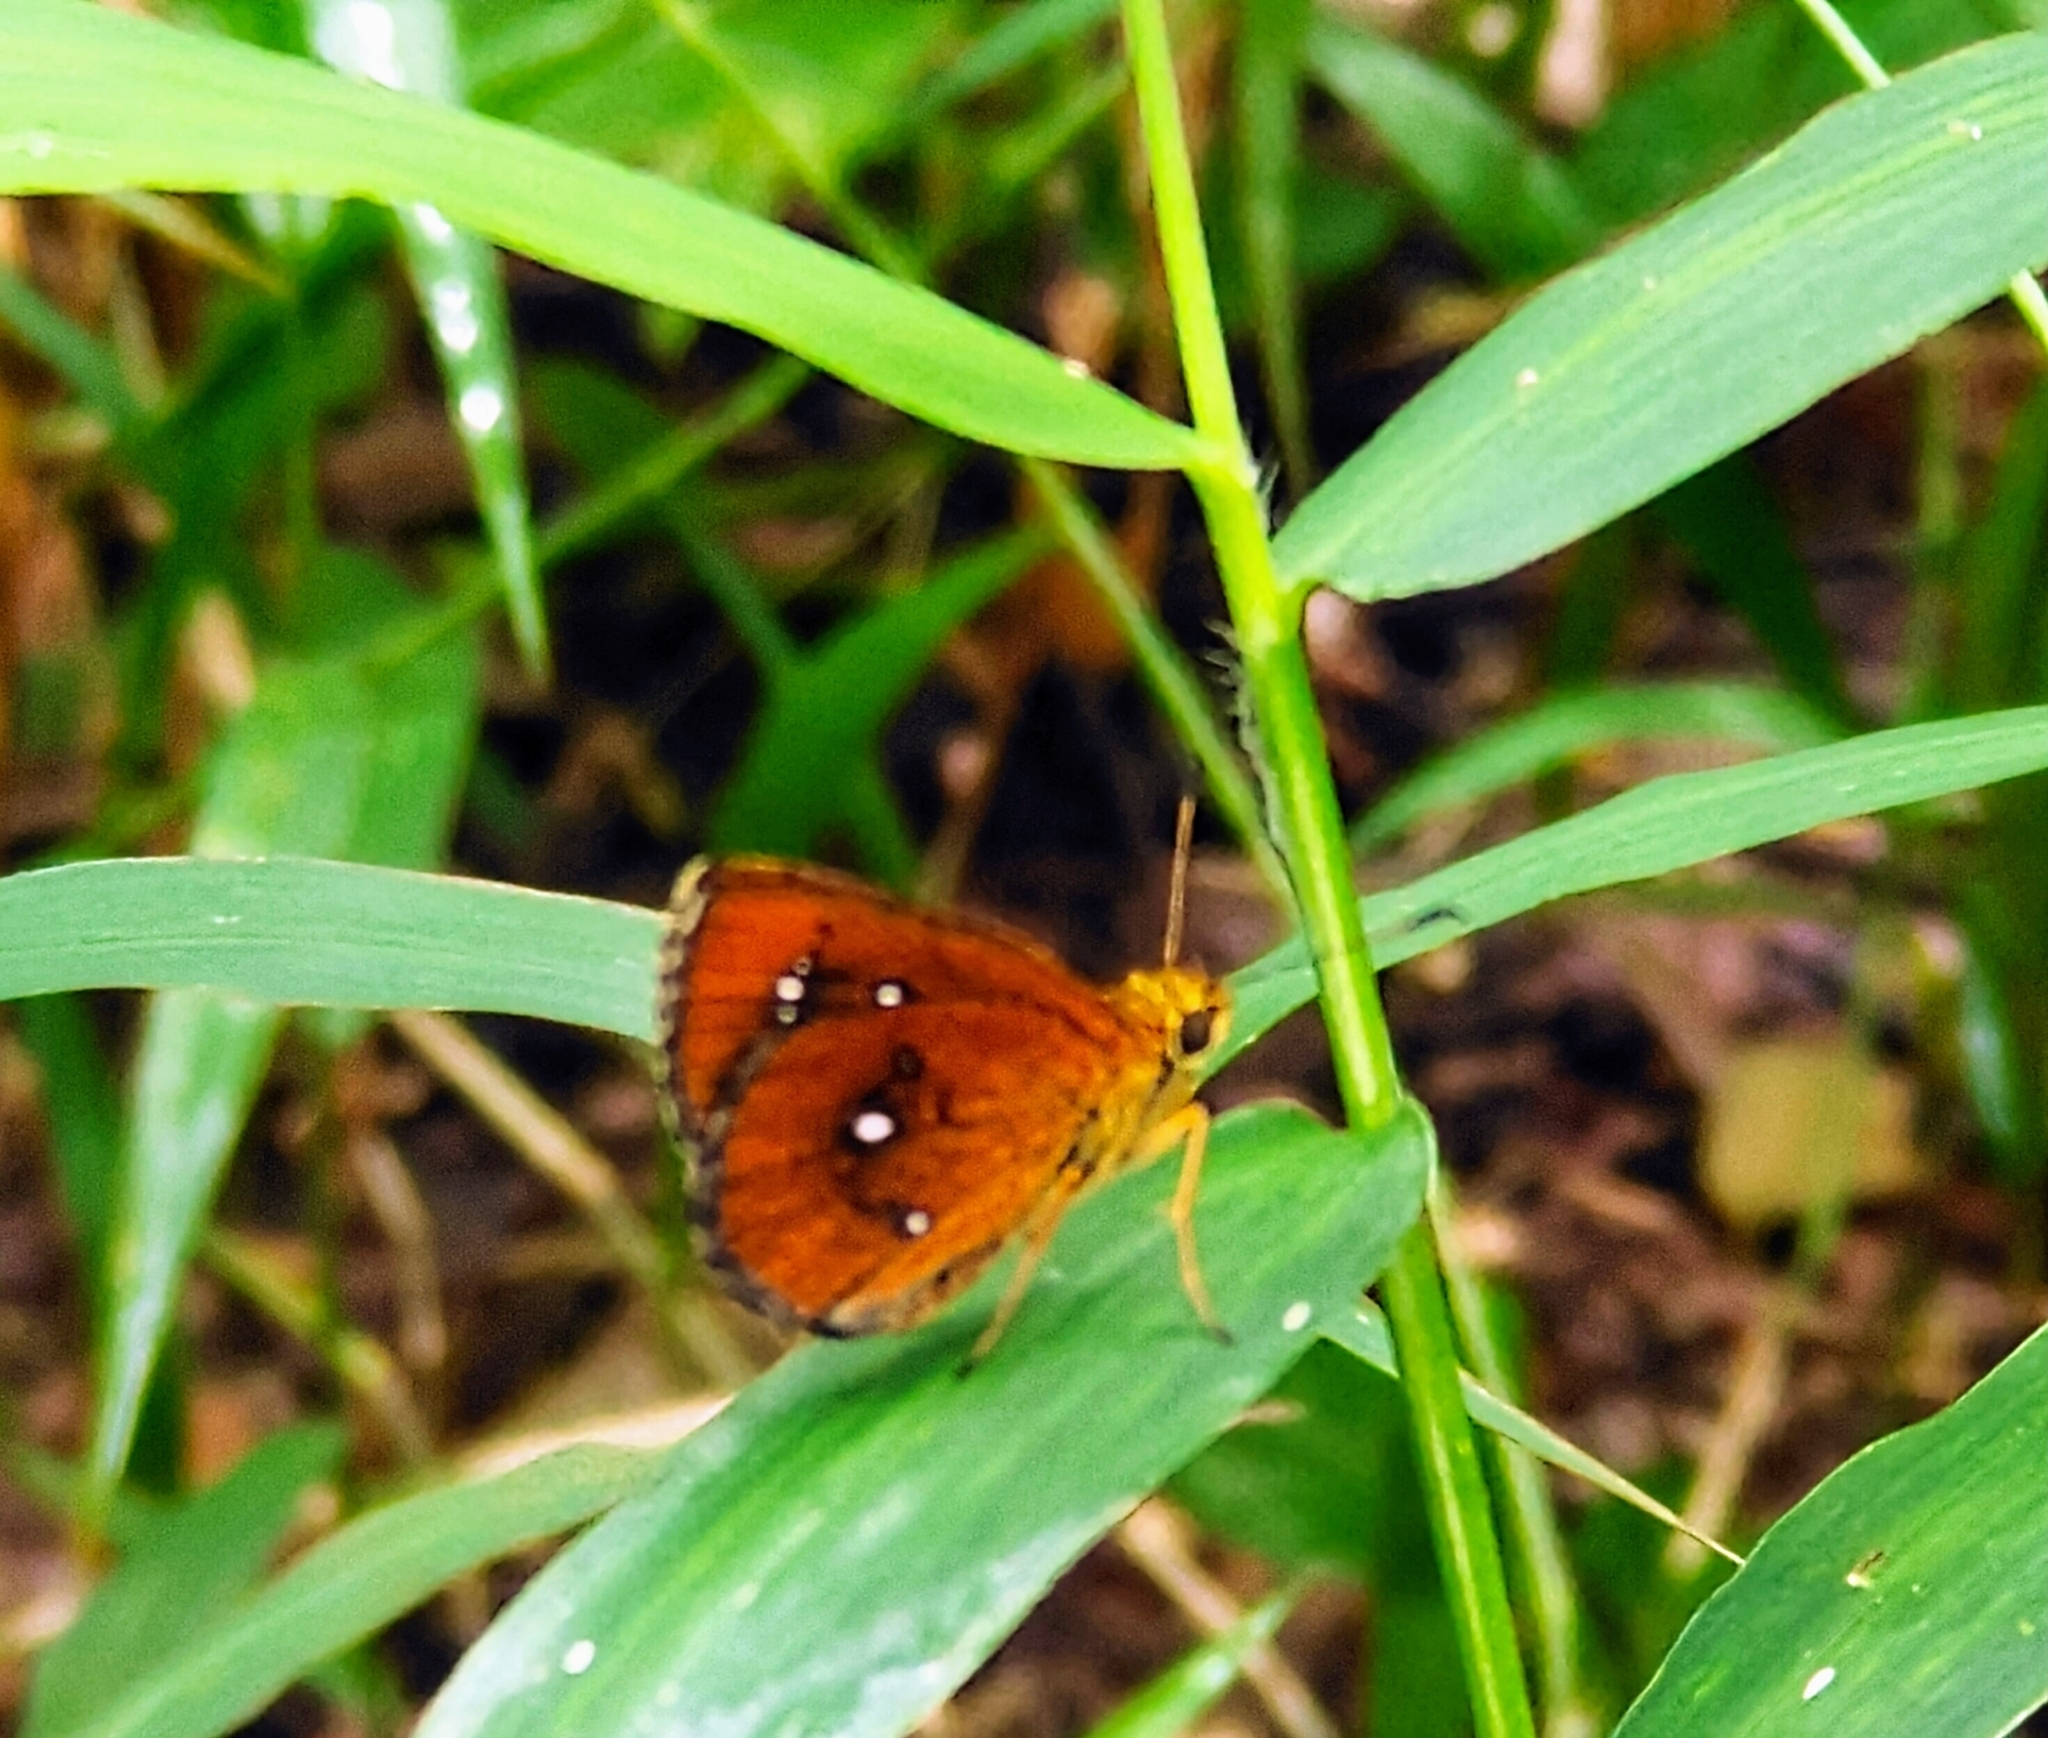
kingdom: Animalia
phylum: Arthropoda
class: Insecta
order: Lepidoptera
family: Hesperiidae
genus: Iambrix
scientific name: Iambrix salsala
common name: Chestnut bob
